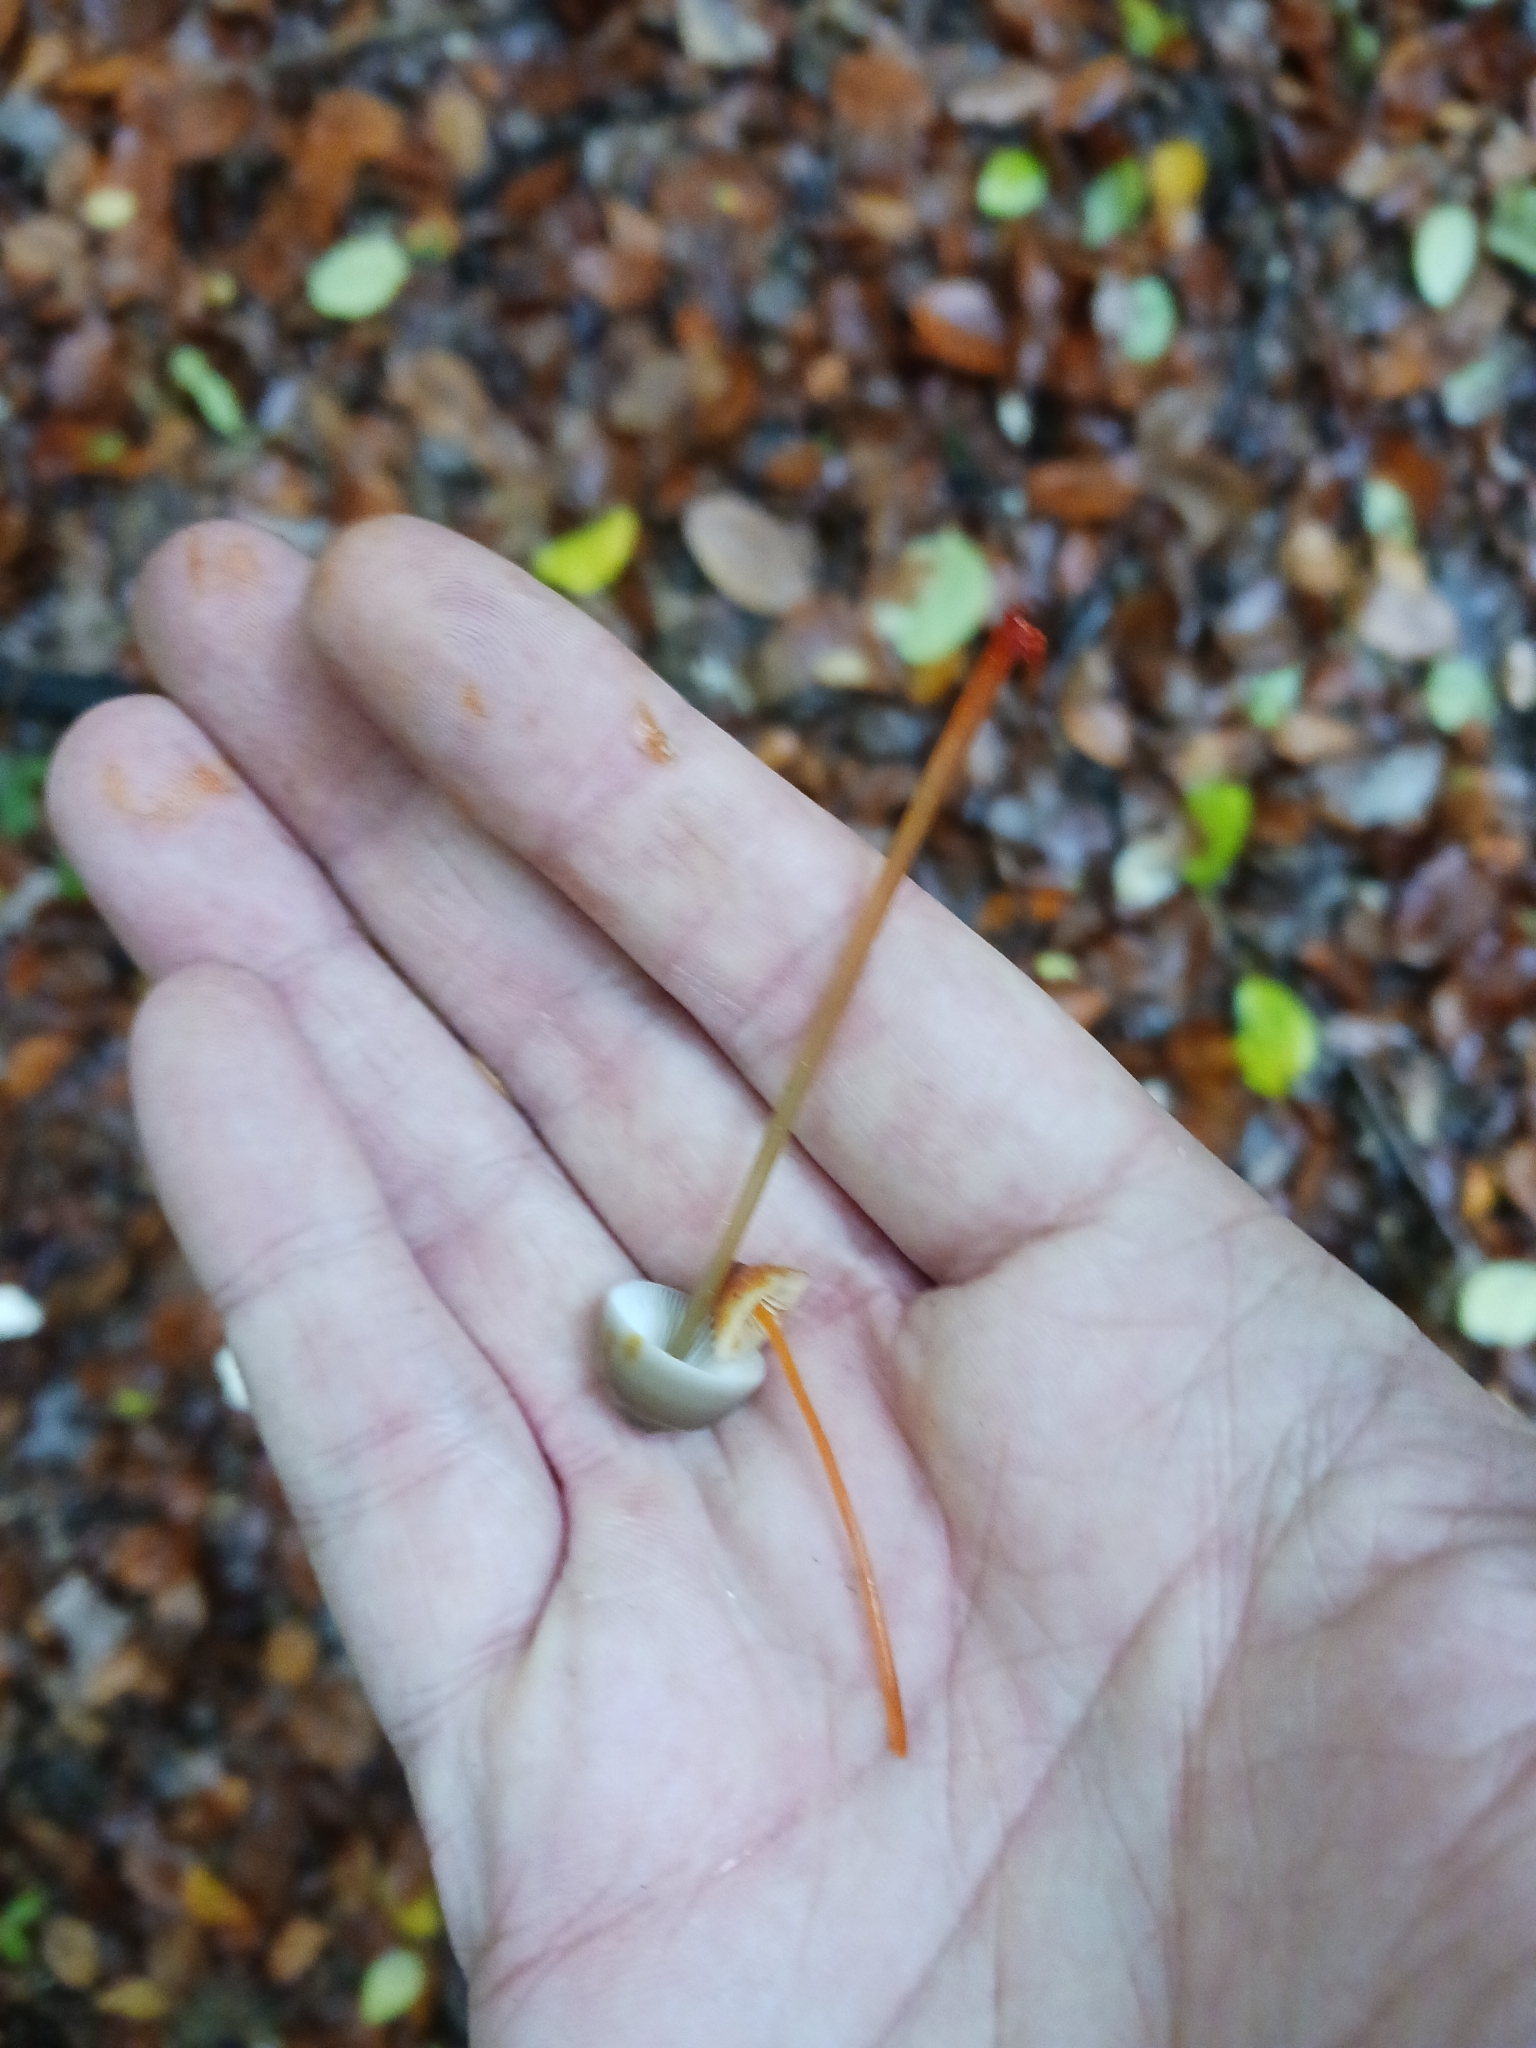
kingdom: Fungi
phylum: Basidiomycota
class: Agaricomycetes
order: Agaricales
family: Mycenaceae
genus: Mycena
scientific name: Mycena crocata
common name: Saffrondrop bonnet
